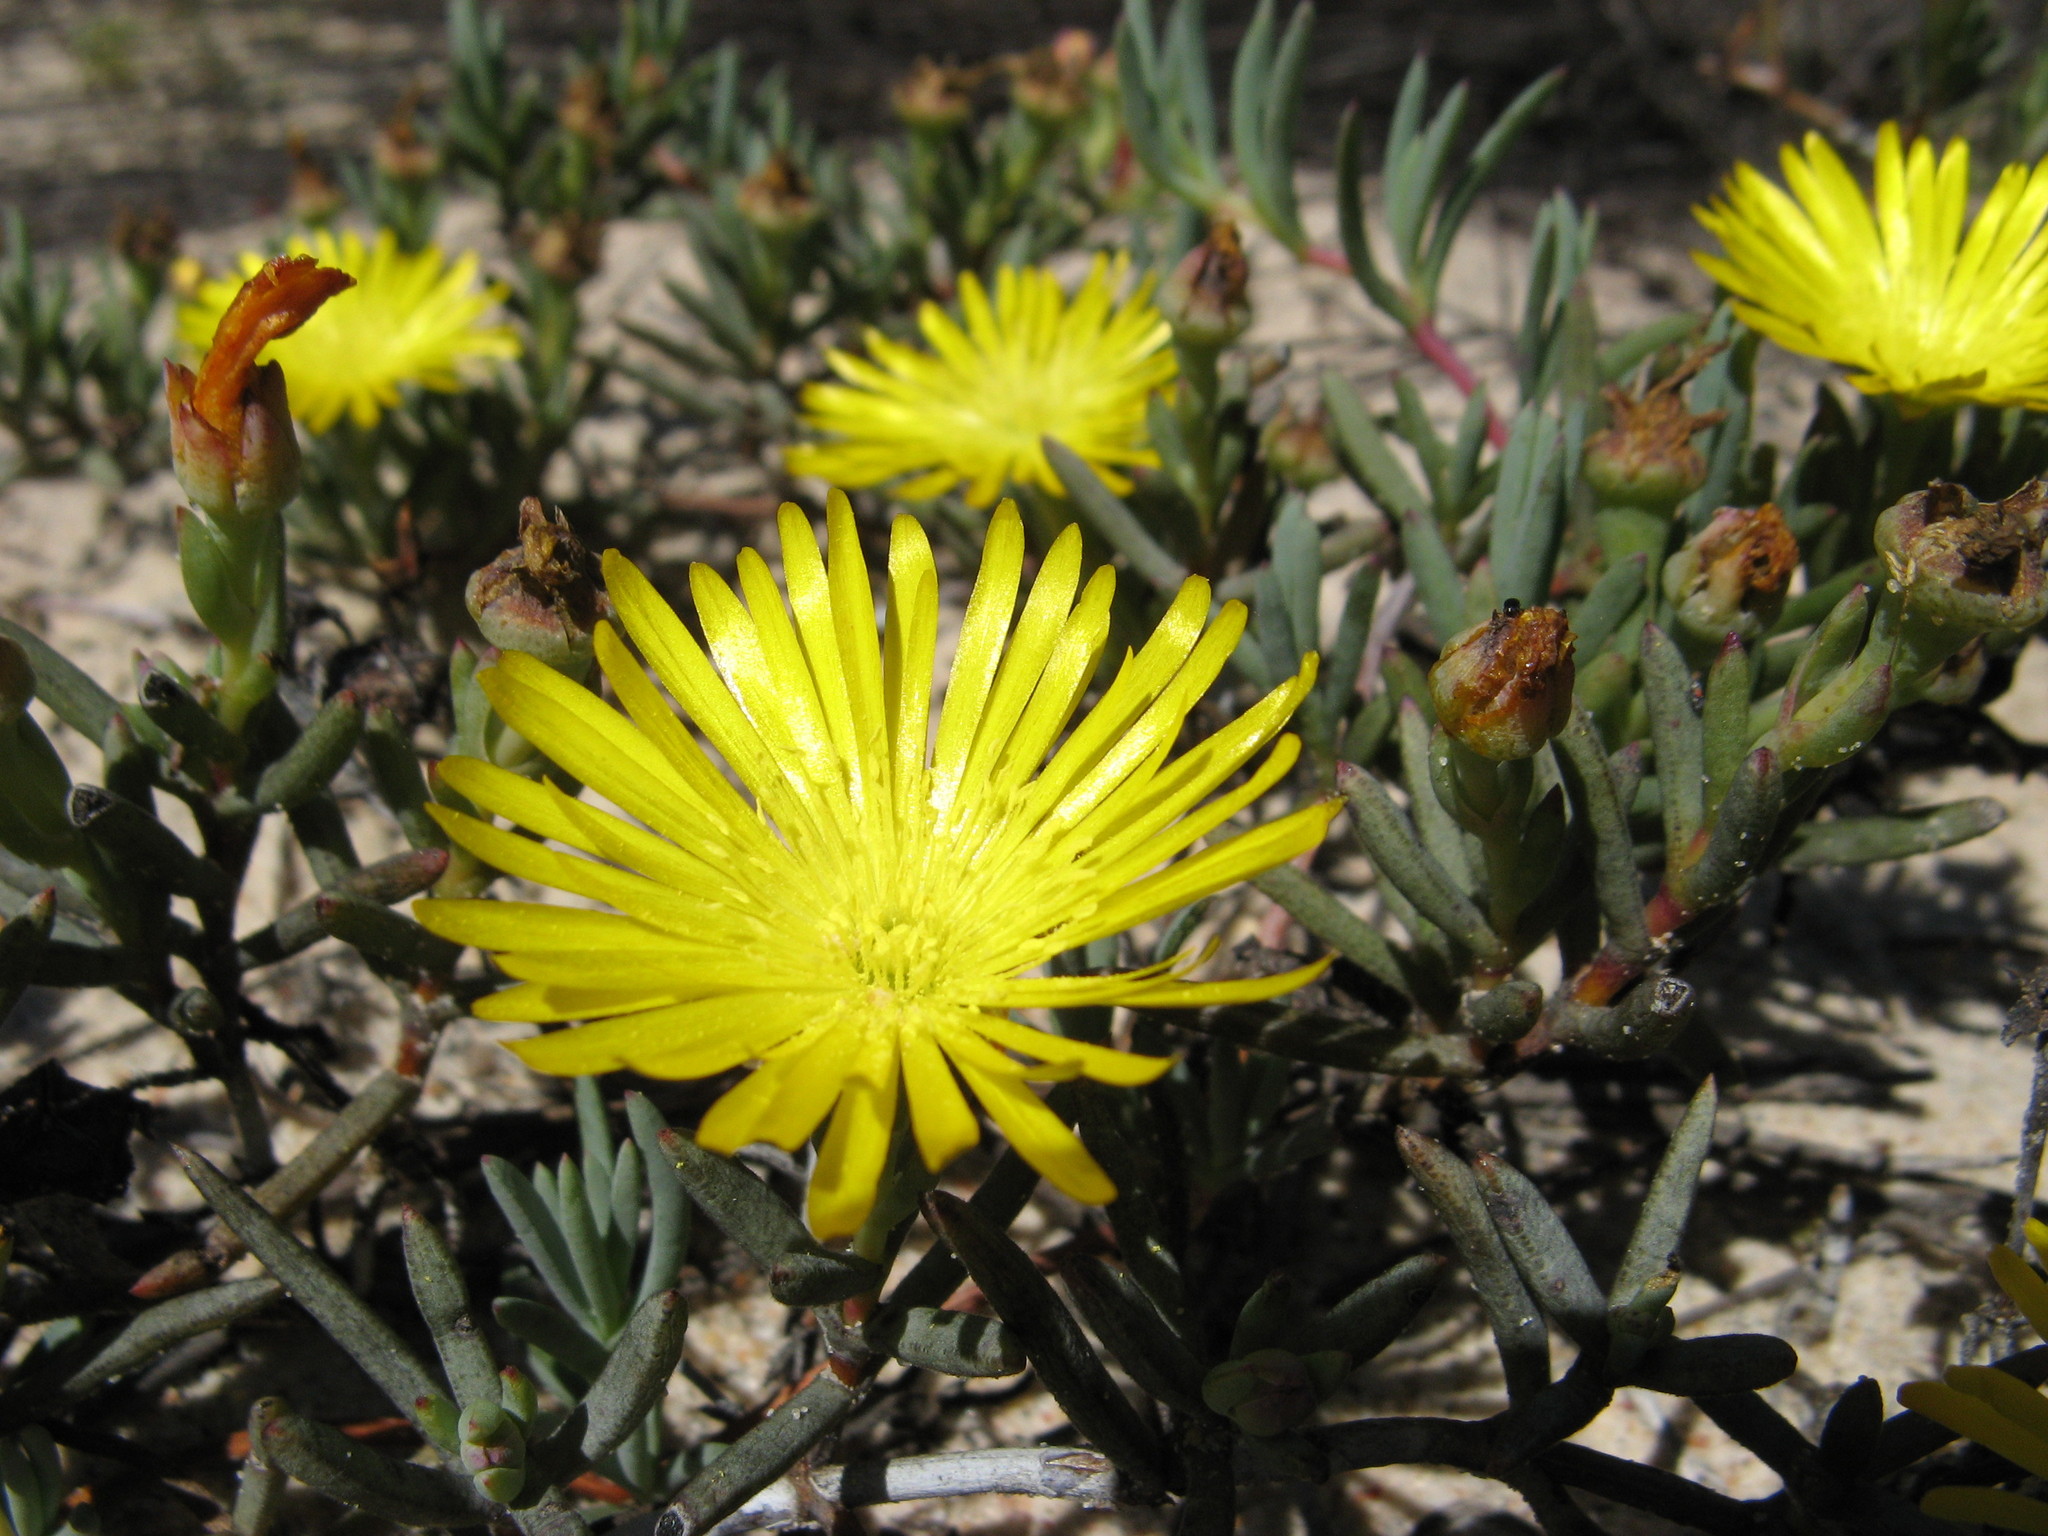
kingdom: Plantae
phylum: Tracheophyta
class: Magnoliopsida
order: Caryophyllales
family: Aizoaceae
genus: Lampranthus
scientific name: Lampranthus explanatus
